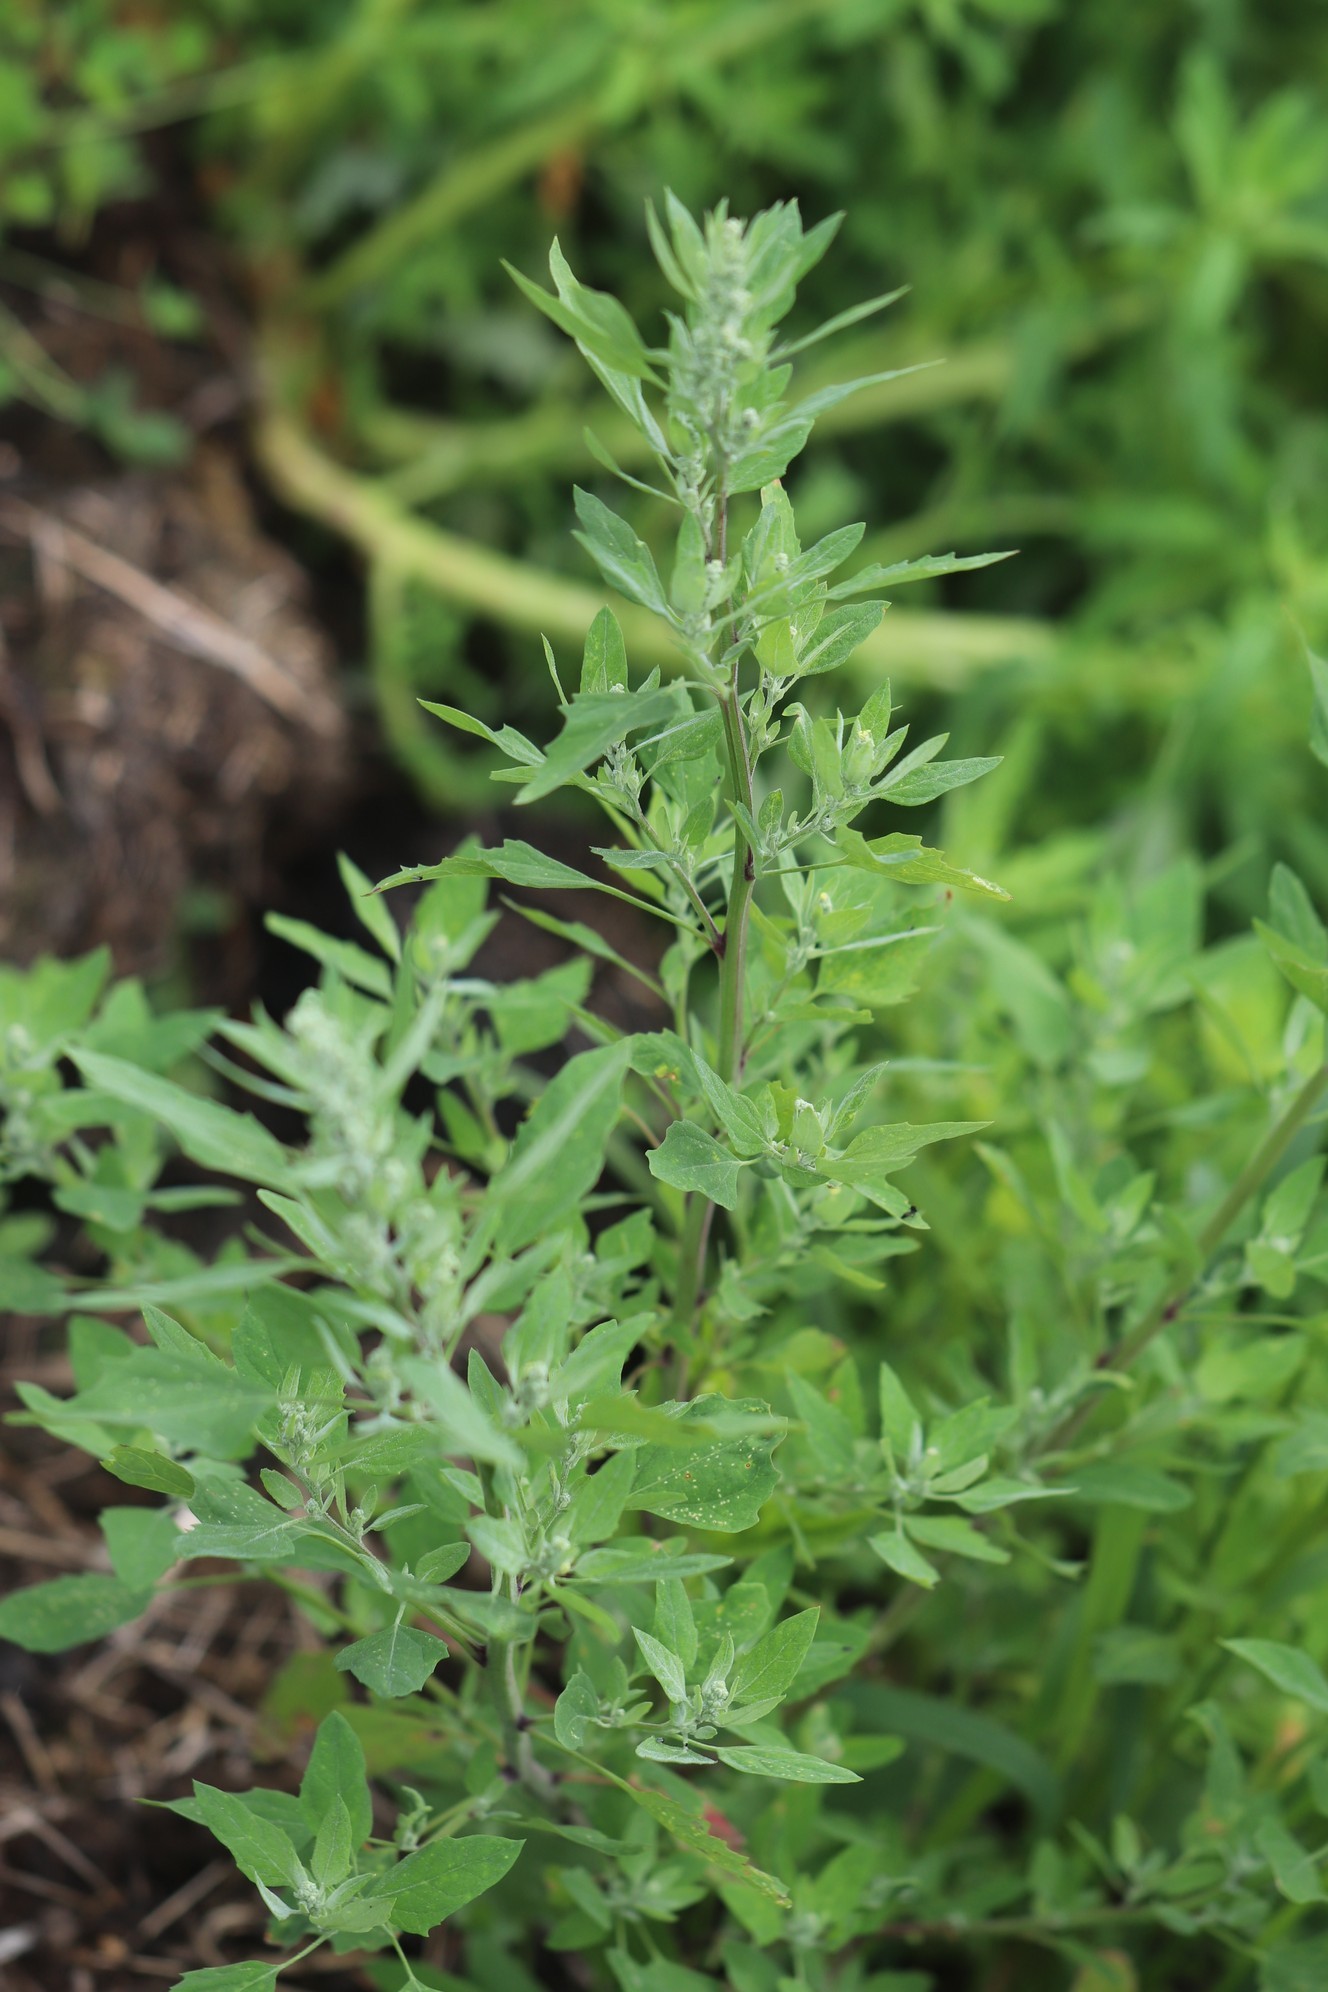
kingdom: Plantae
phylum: Tracheophyta
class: Magnoliopsida
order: Caryophyllales
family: Amaranthaceae
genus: Chenopodium
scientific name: Chenopodium album
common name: Fat-hen
